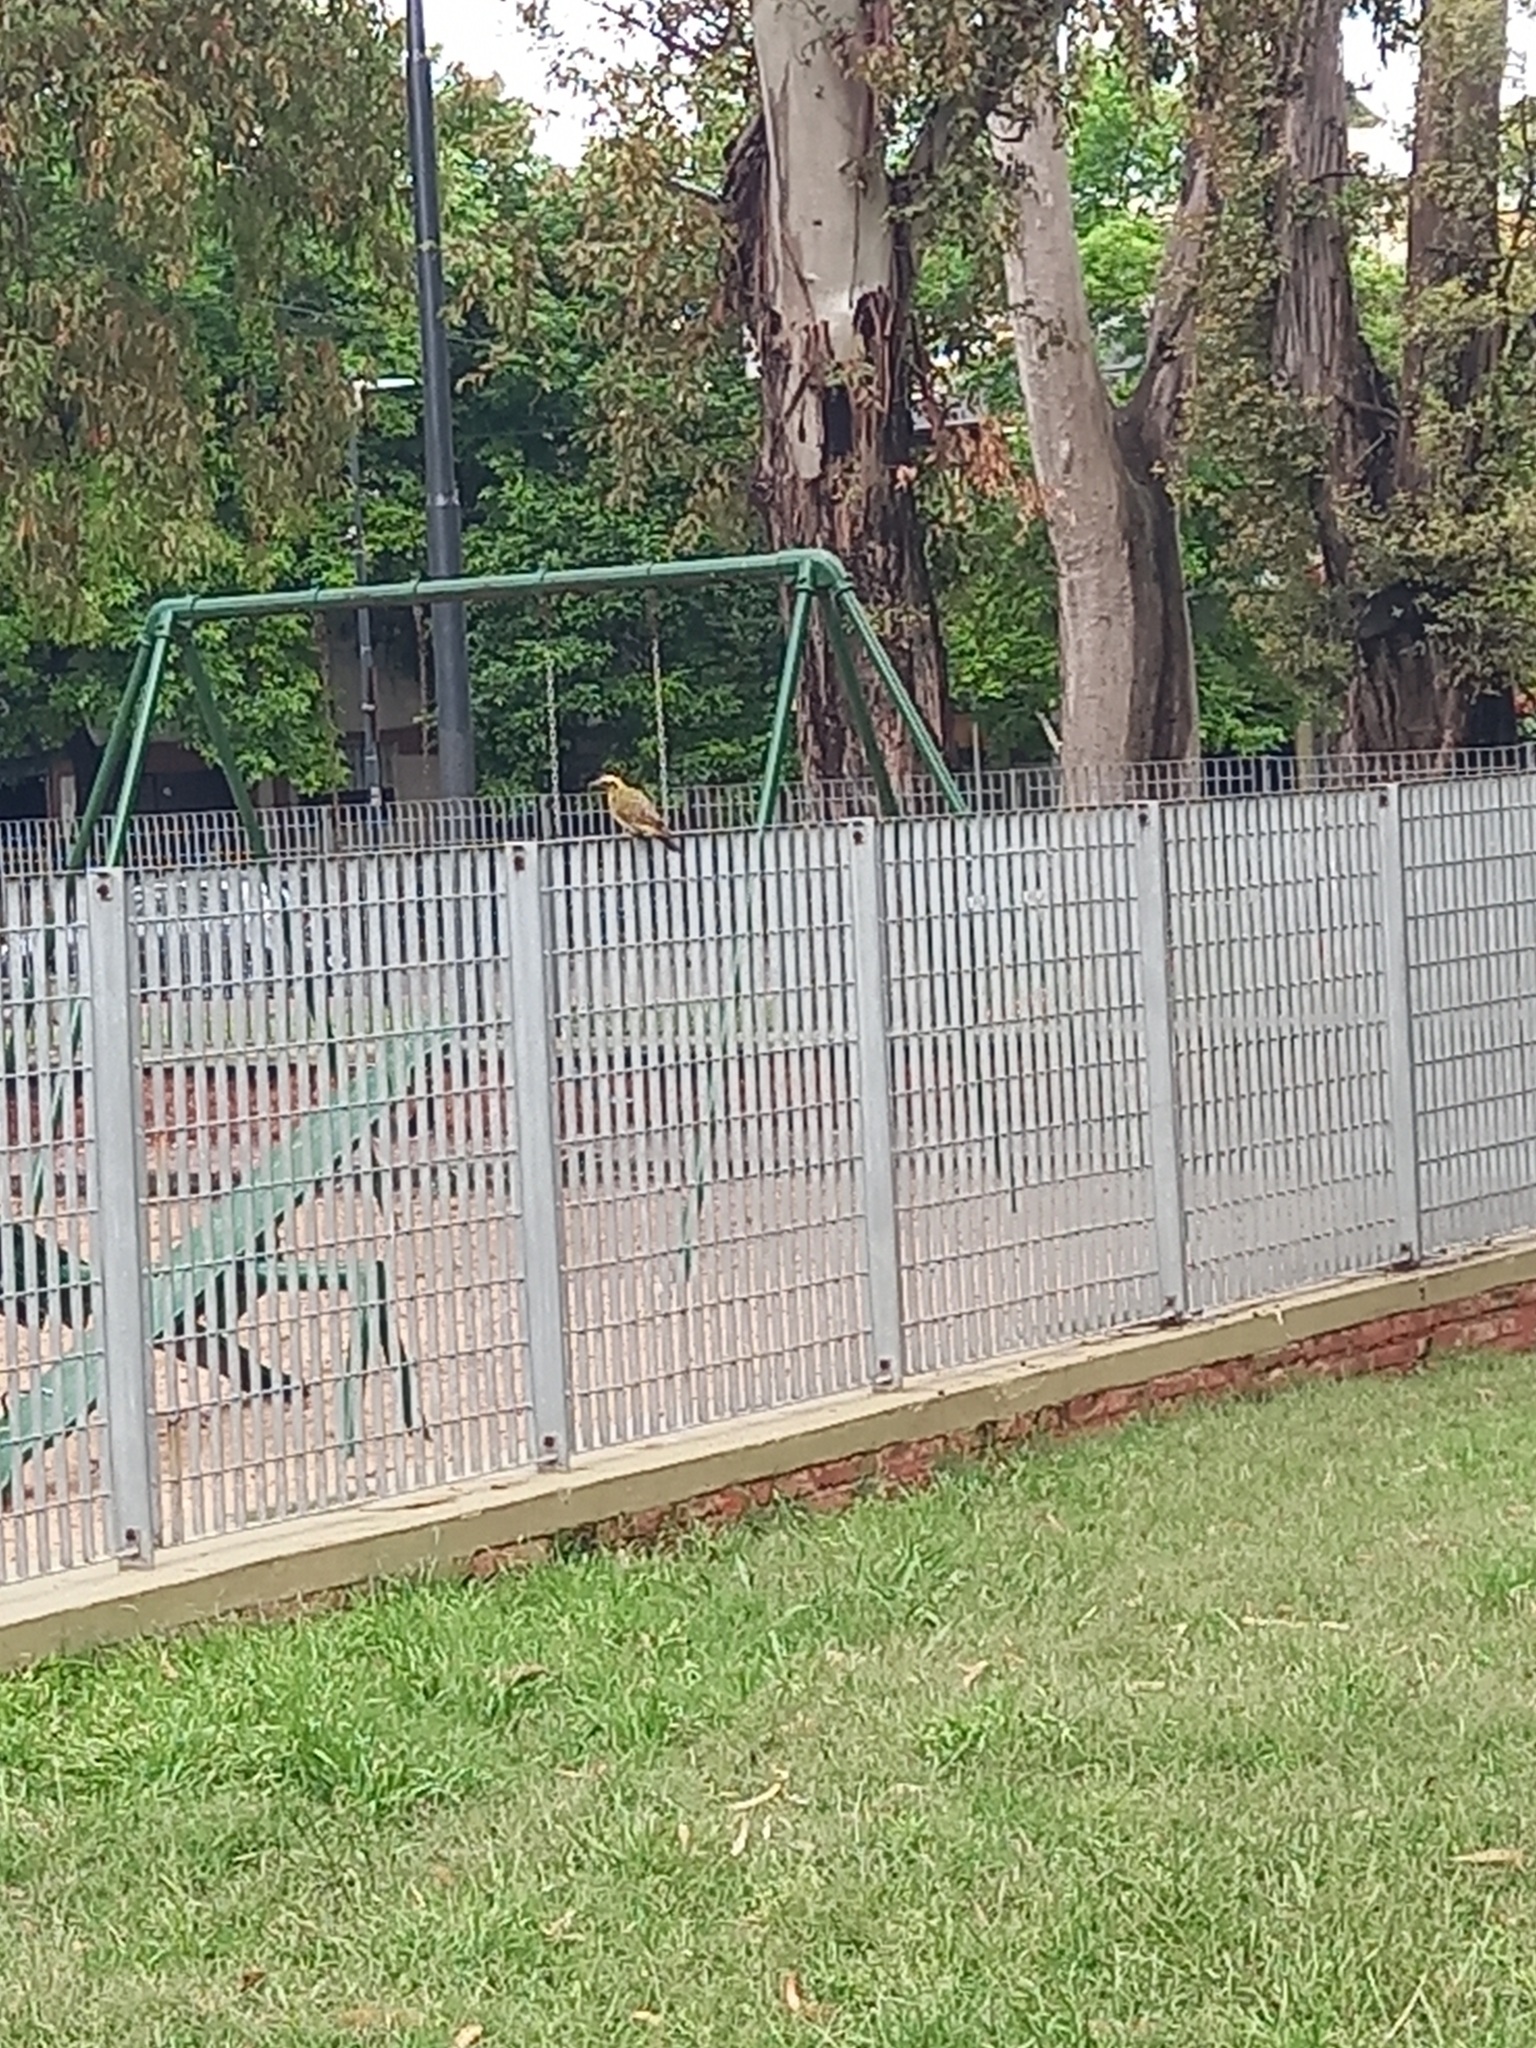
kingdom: Animalia
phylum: Chordata
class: Aves
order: Piciformes
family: Picidae
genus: Colaptes
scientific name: Colaptes melanochloros
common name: Green-barred woodpecker
